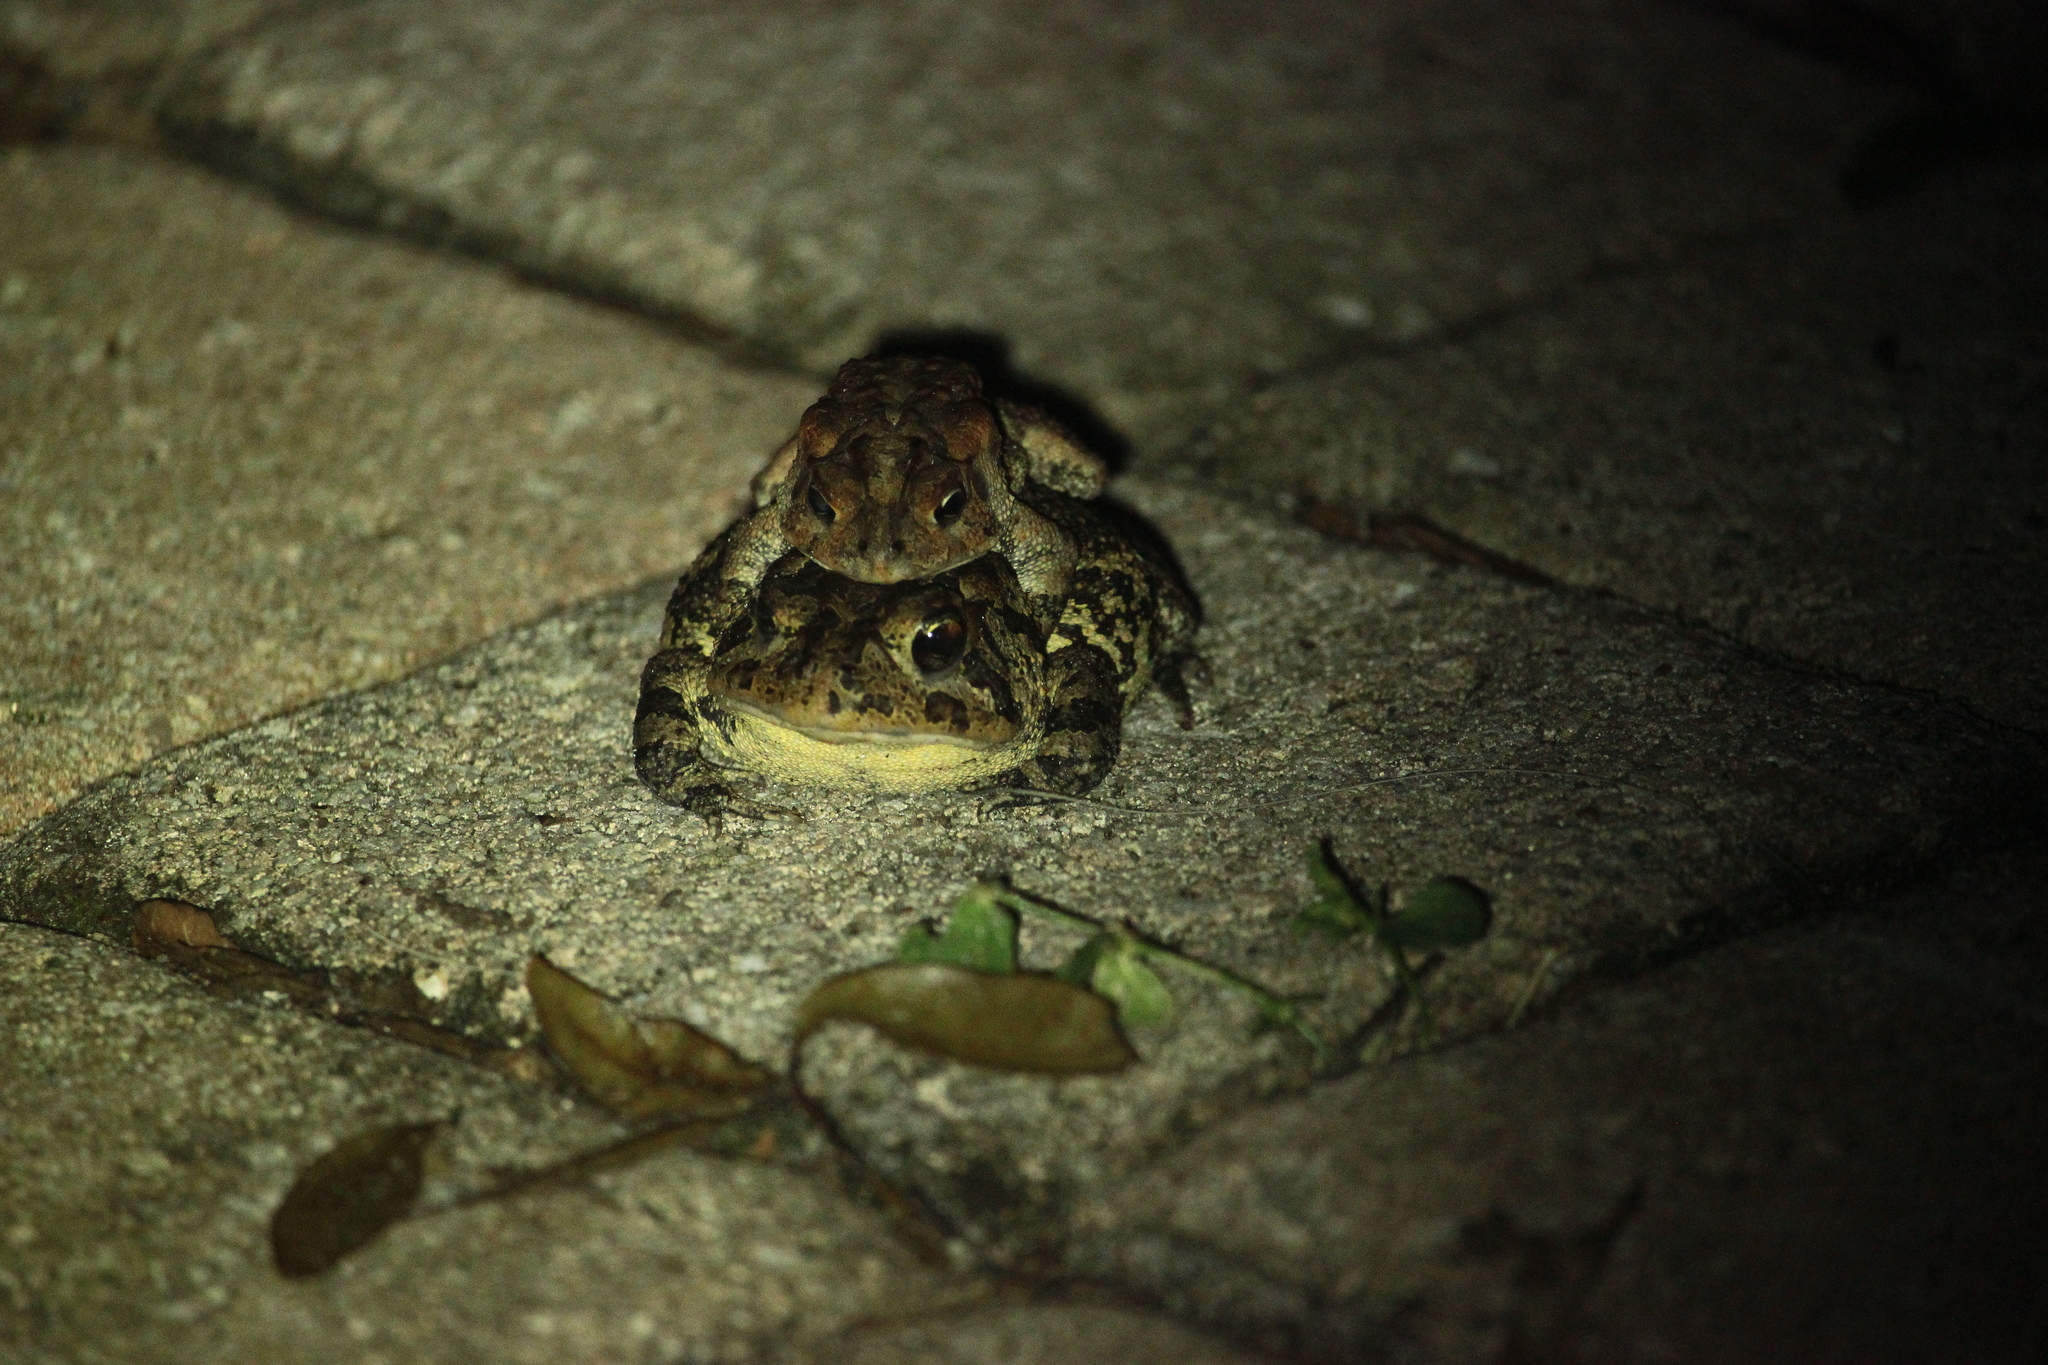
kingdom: Animalia
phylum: Chordata
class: Amphibia
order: Anura
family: Bufonidae
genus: Anaxyrus
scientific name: Anaxyrus terrestris
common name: Southern toad
